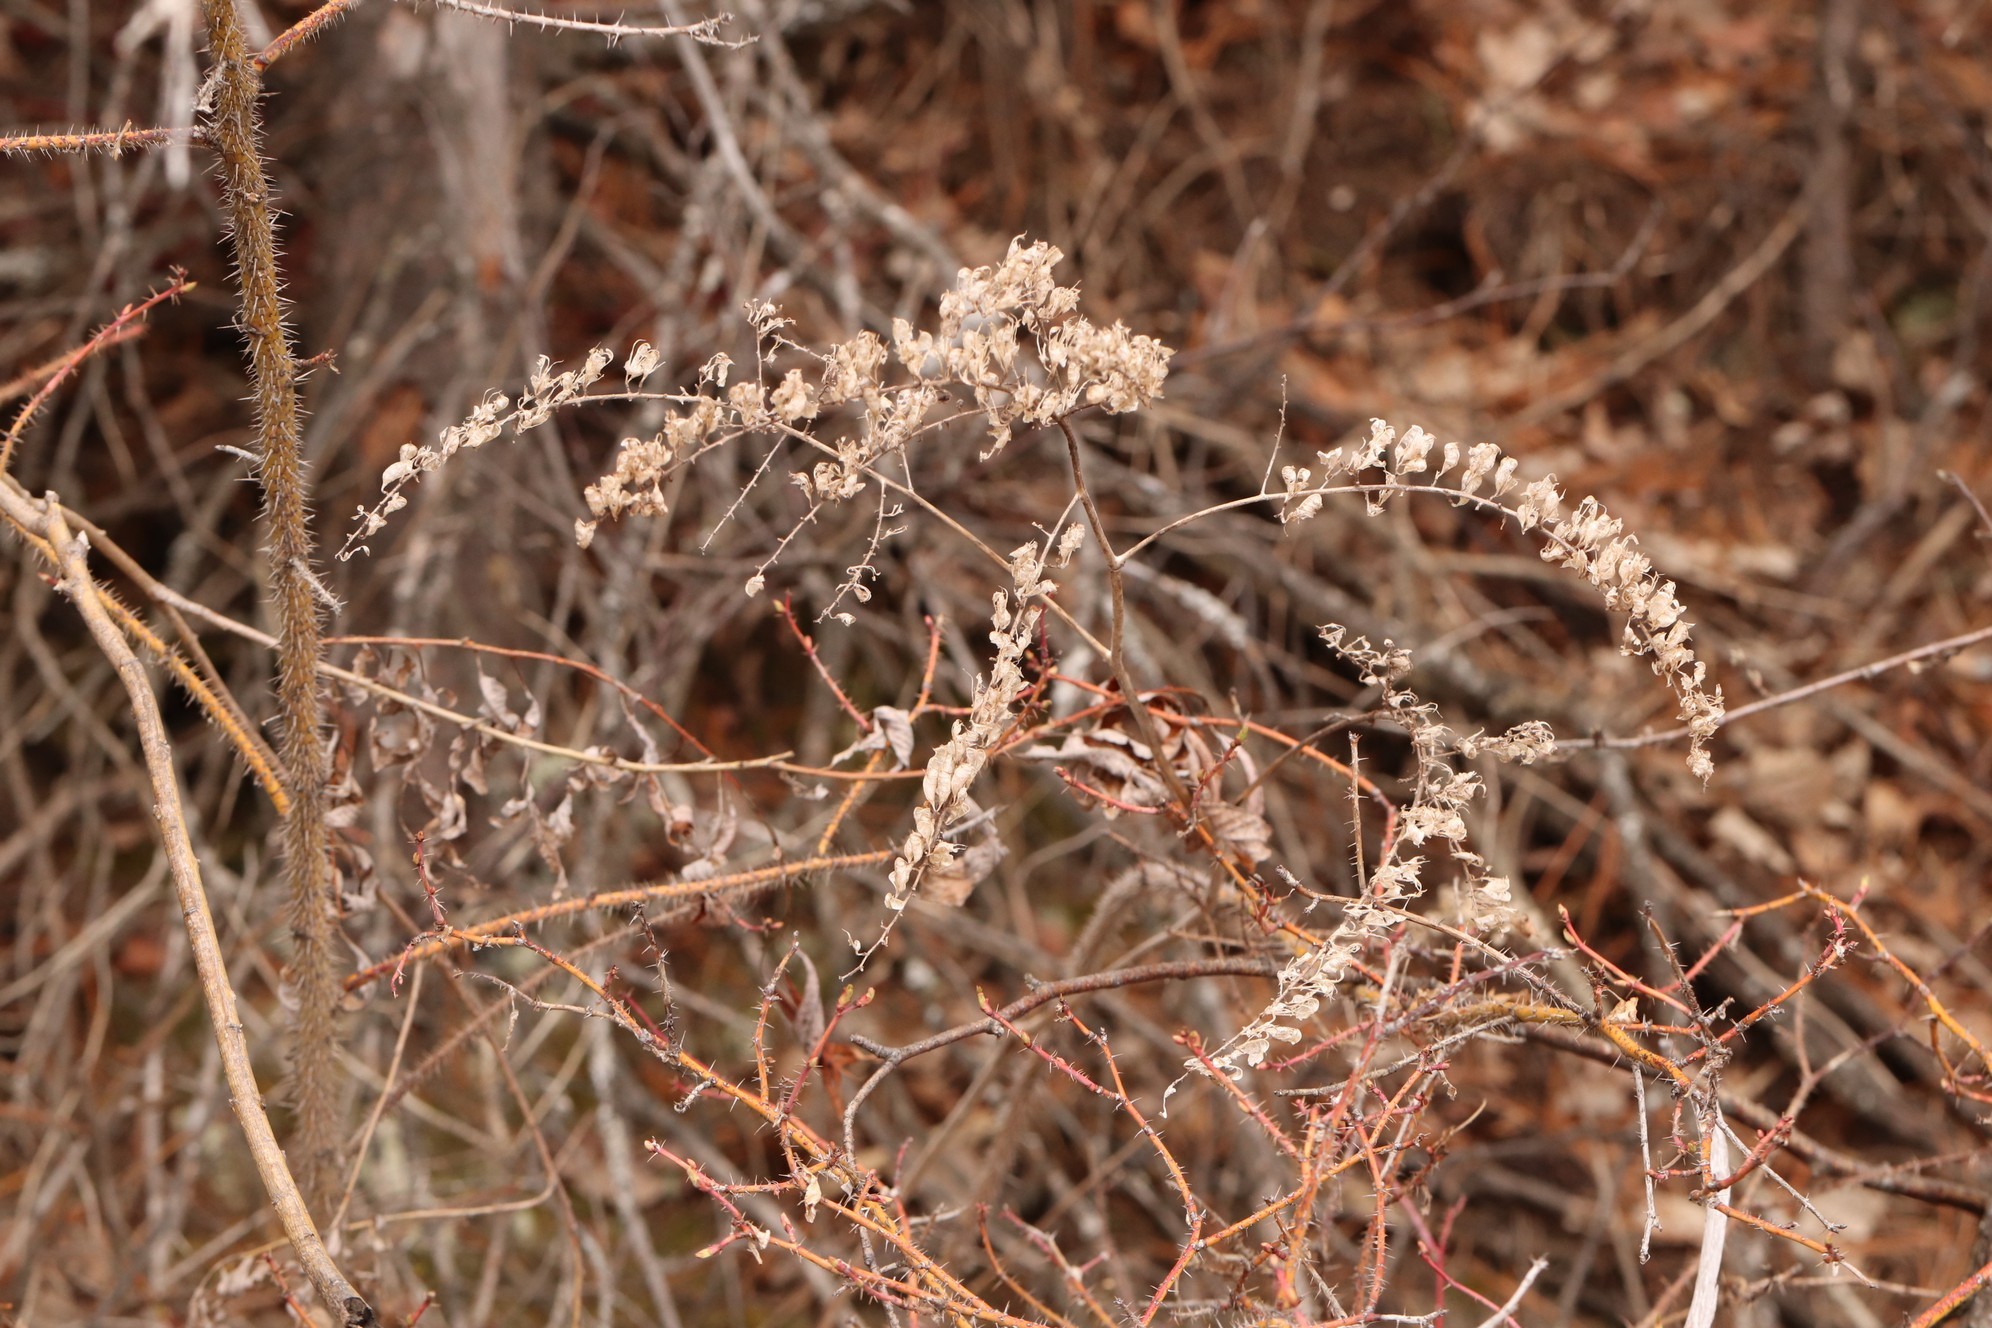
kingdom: Plantae
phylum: Tracheophyta
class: Magnoliopsida
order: Ranunculales
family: Ranunculaceae
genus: Actaea
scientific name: Actaea cimicifuga
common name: Chinese cimicifuga
